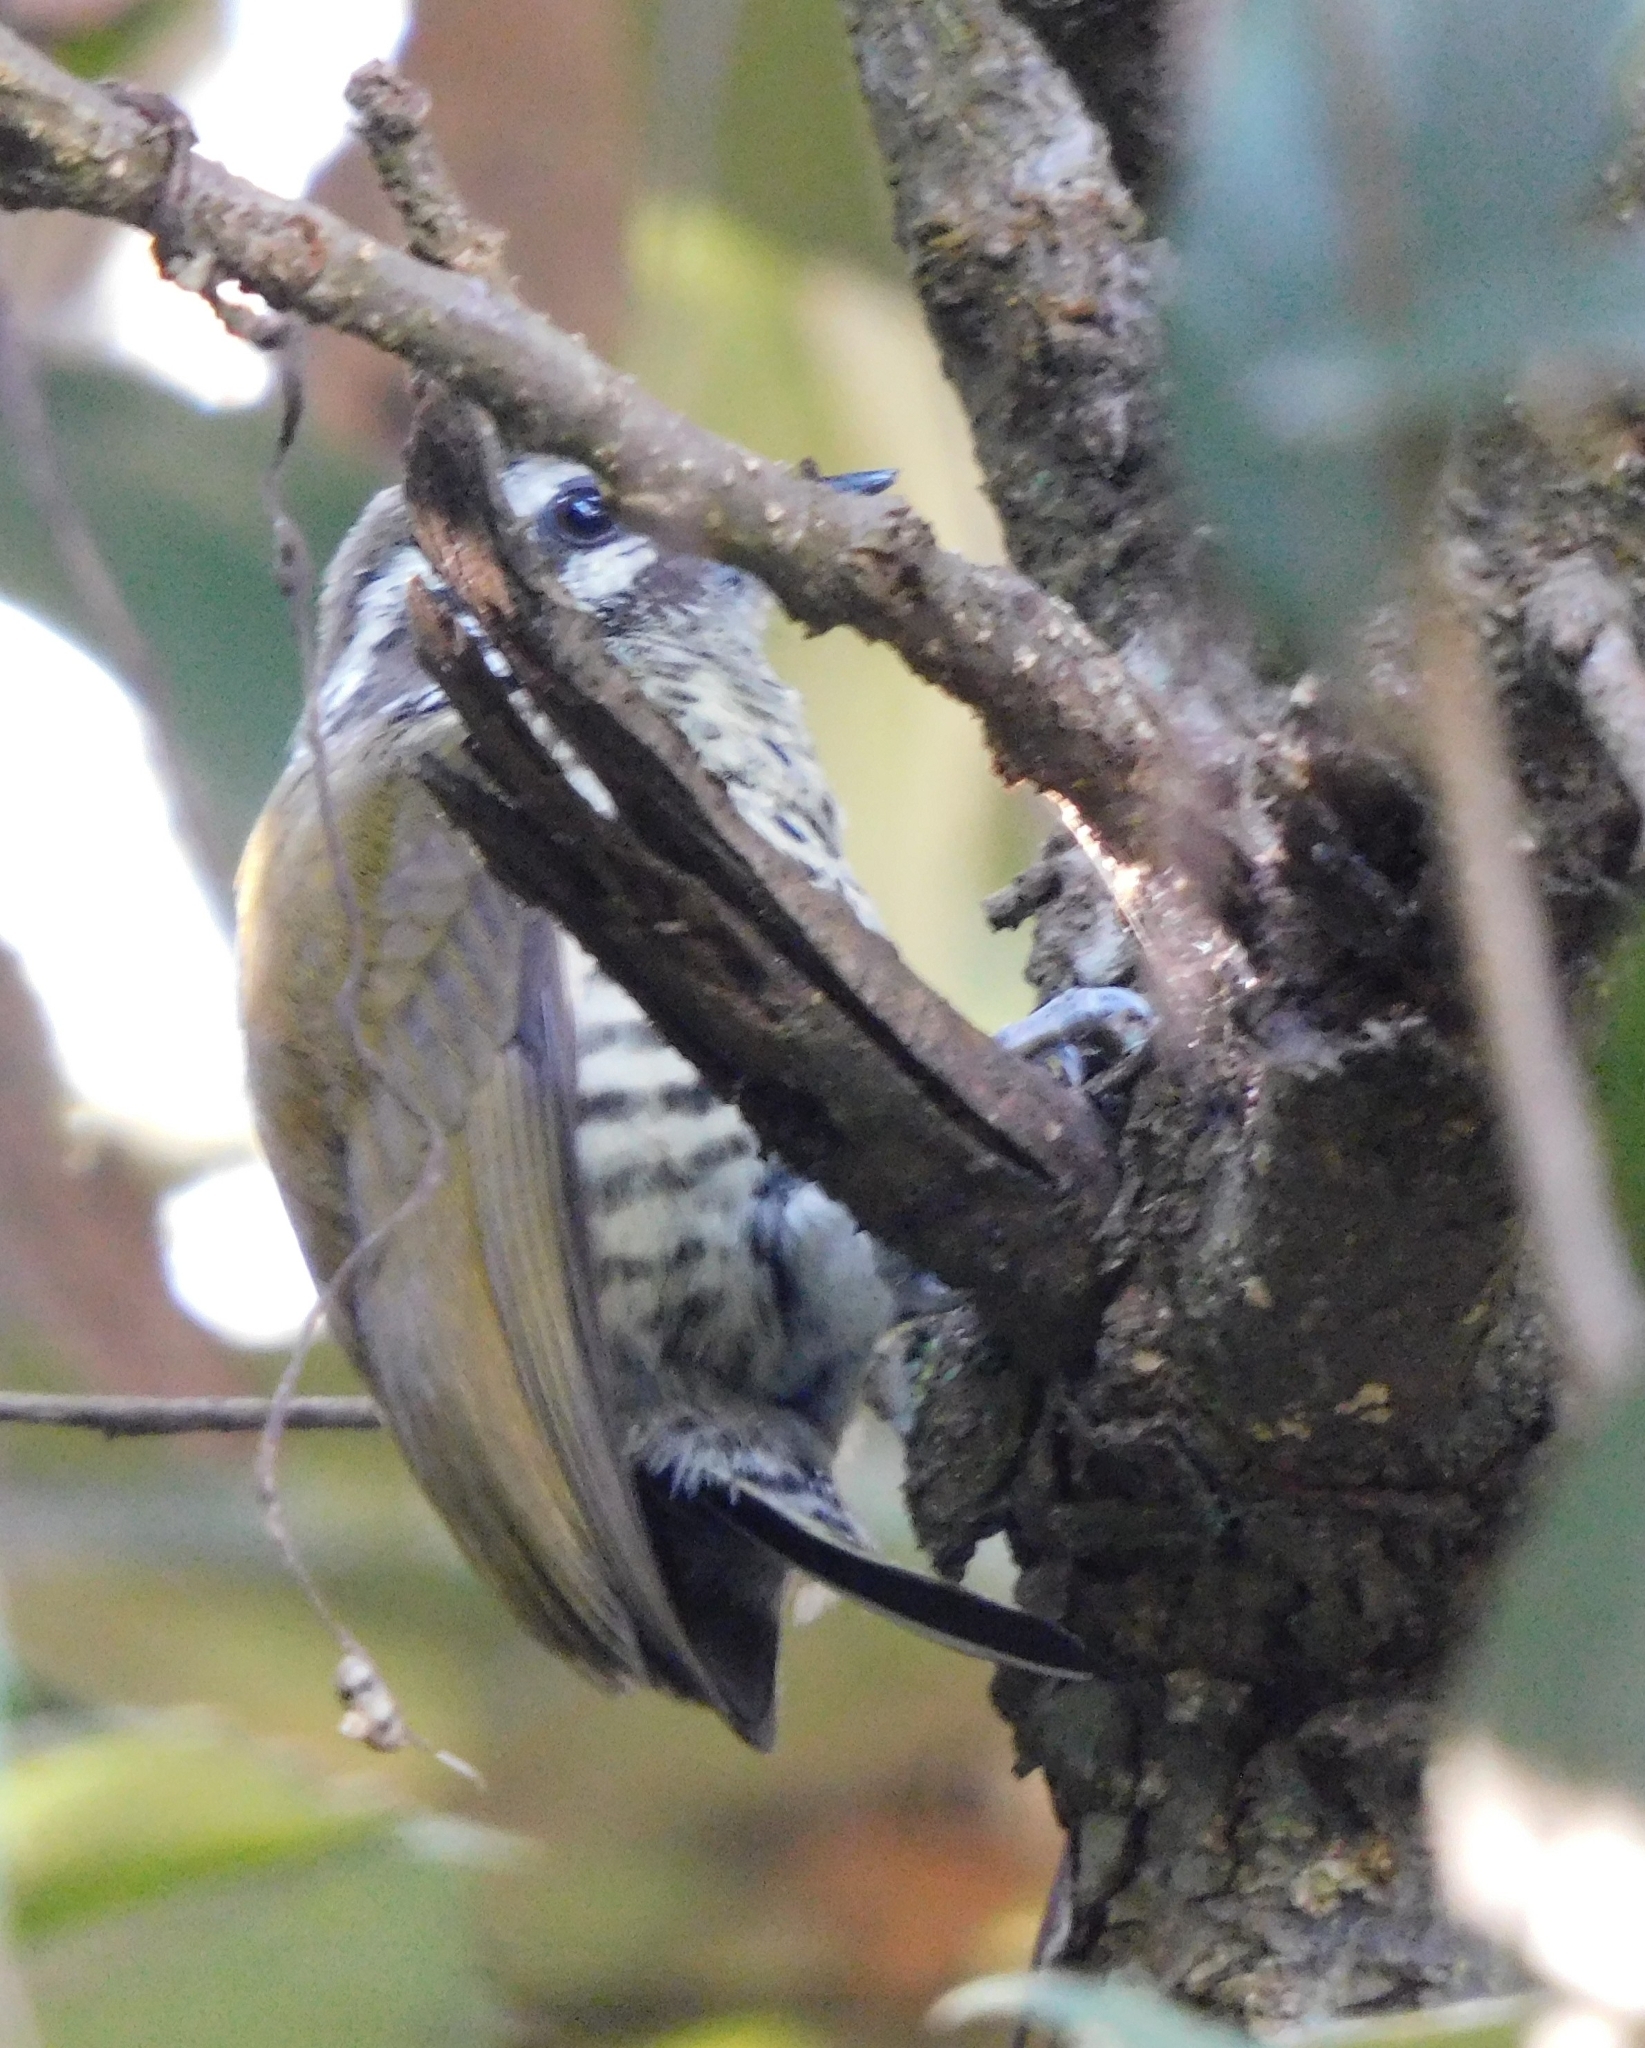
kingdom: Animalia
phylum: Chordata
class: Aves
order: Piciformes
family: Picidae
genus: Picumnus
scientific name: Picumnus innominatus
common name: Speckled piculet
